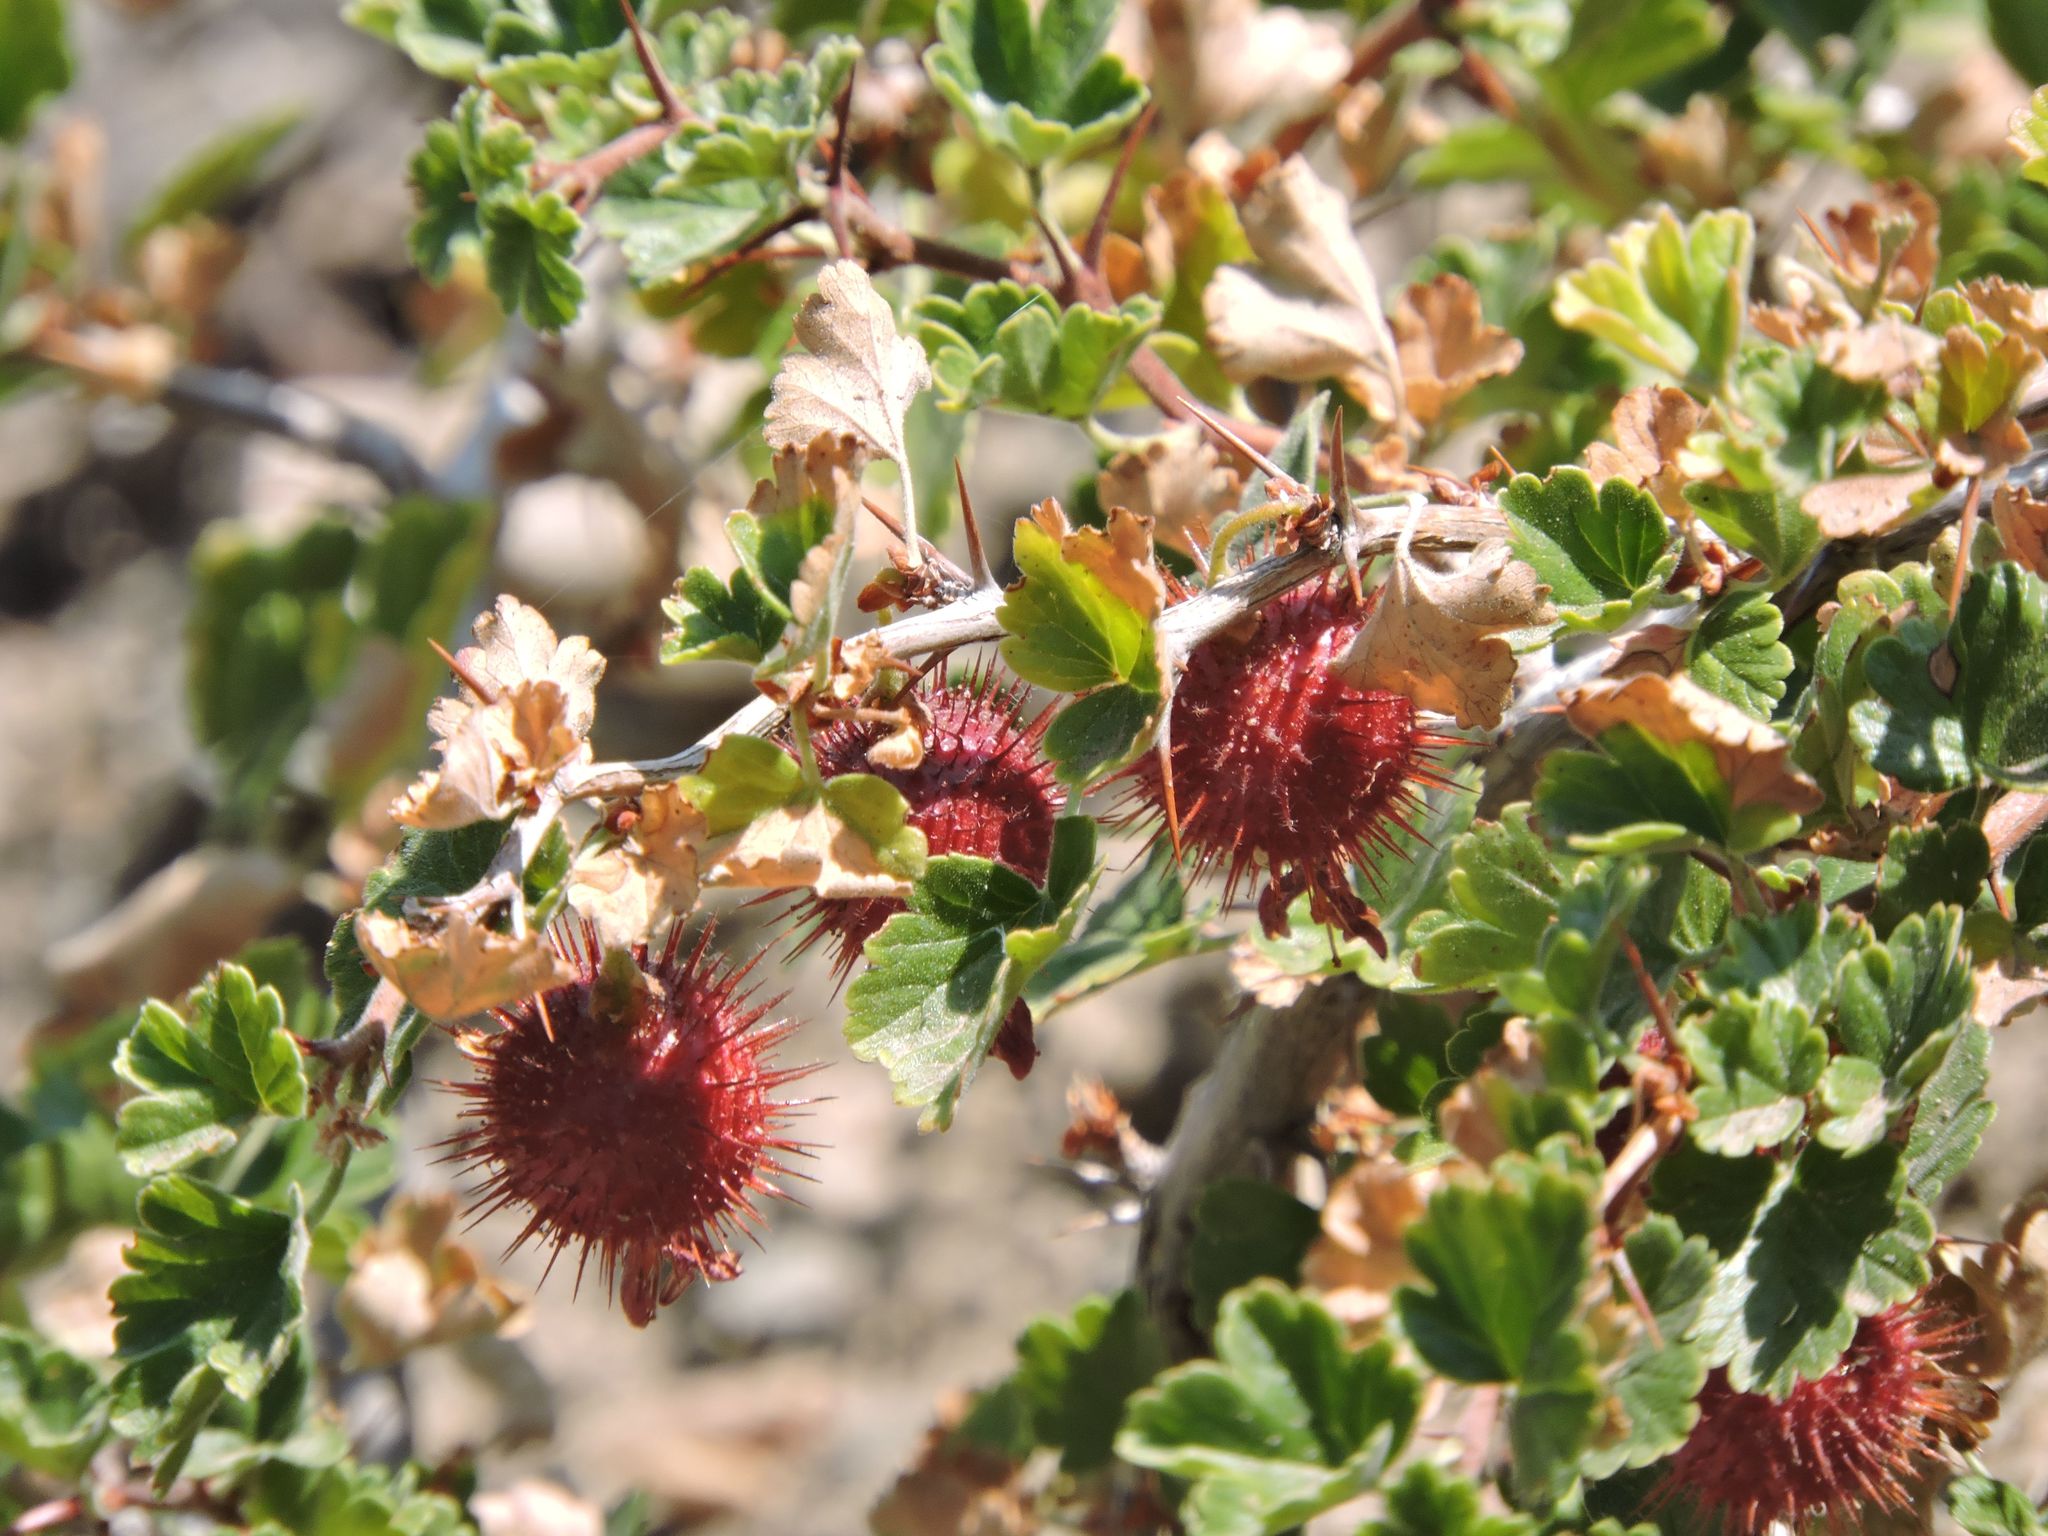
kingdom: Plantae
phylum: Tracheophyta
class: Magnoliopsida
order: Saxifragales
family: Grossulariaceae
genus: Ribes
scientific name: Ribes roezlii
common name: Sierra gooseberry
